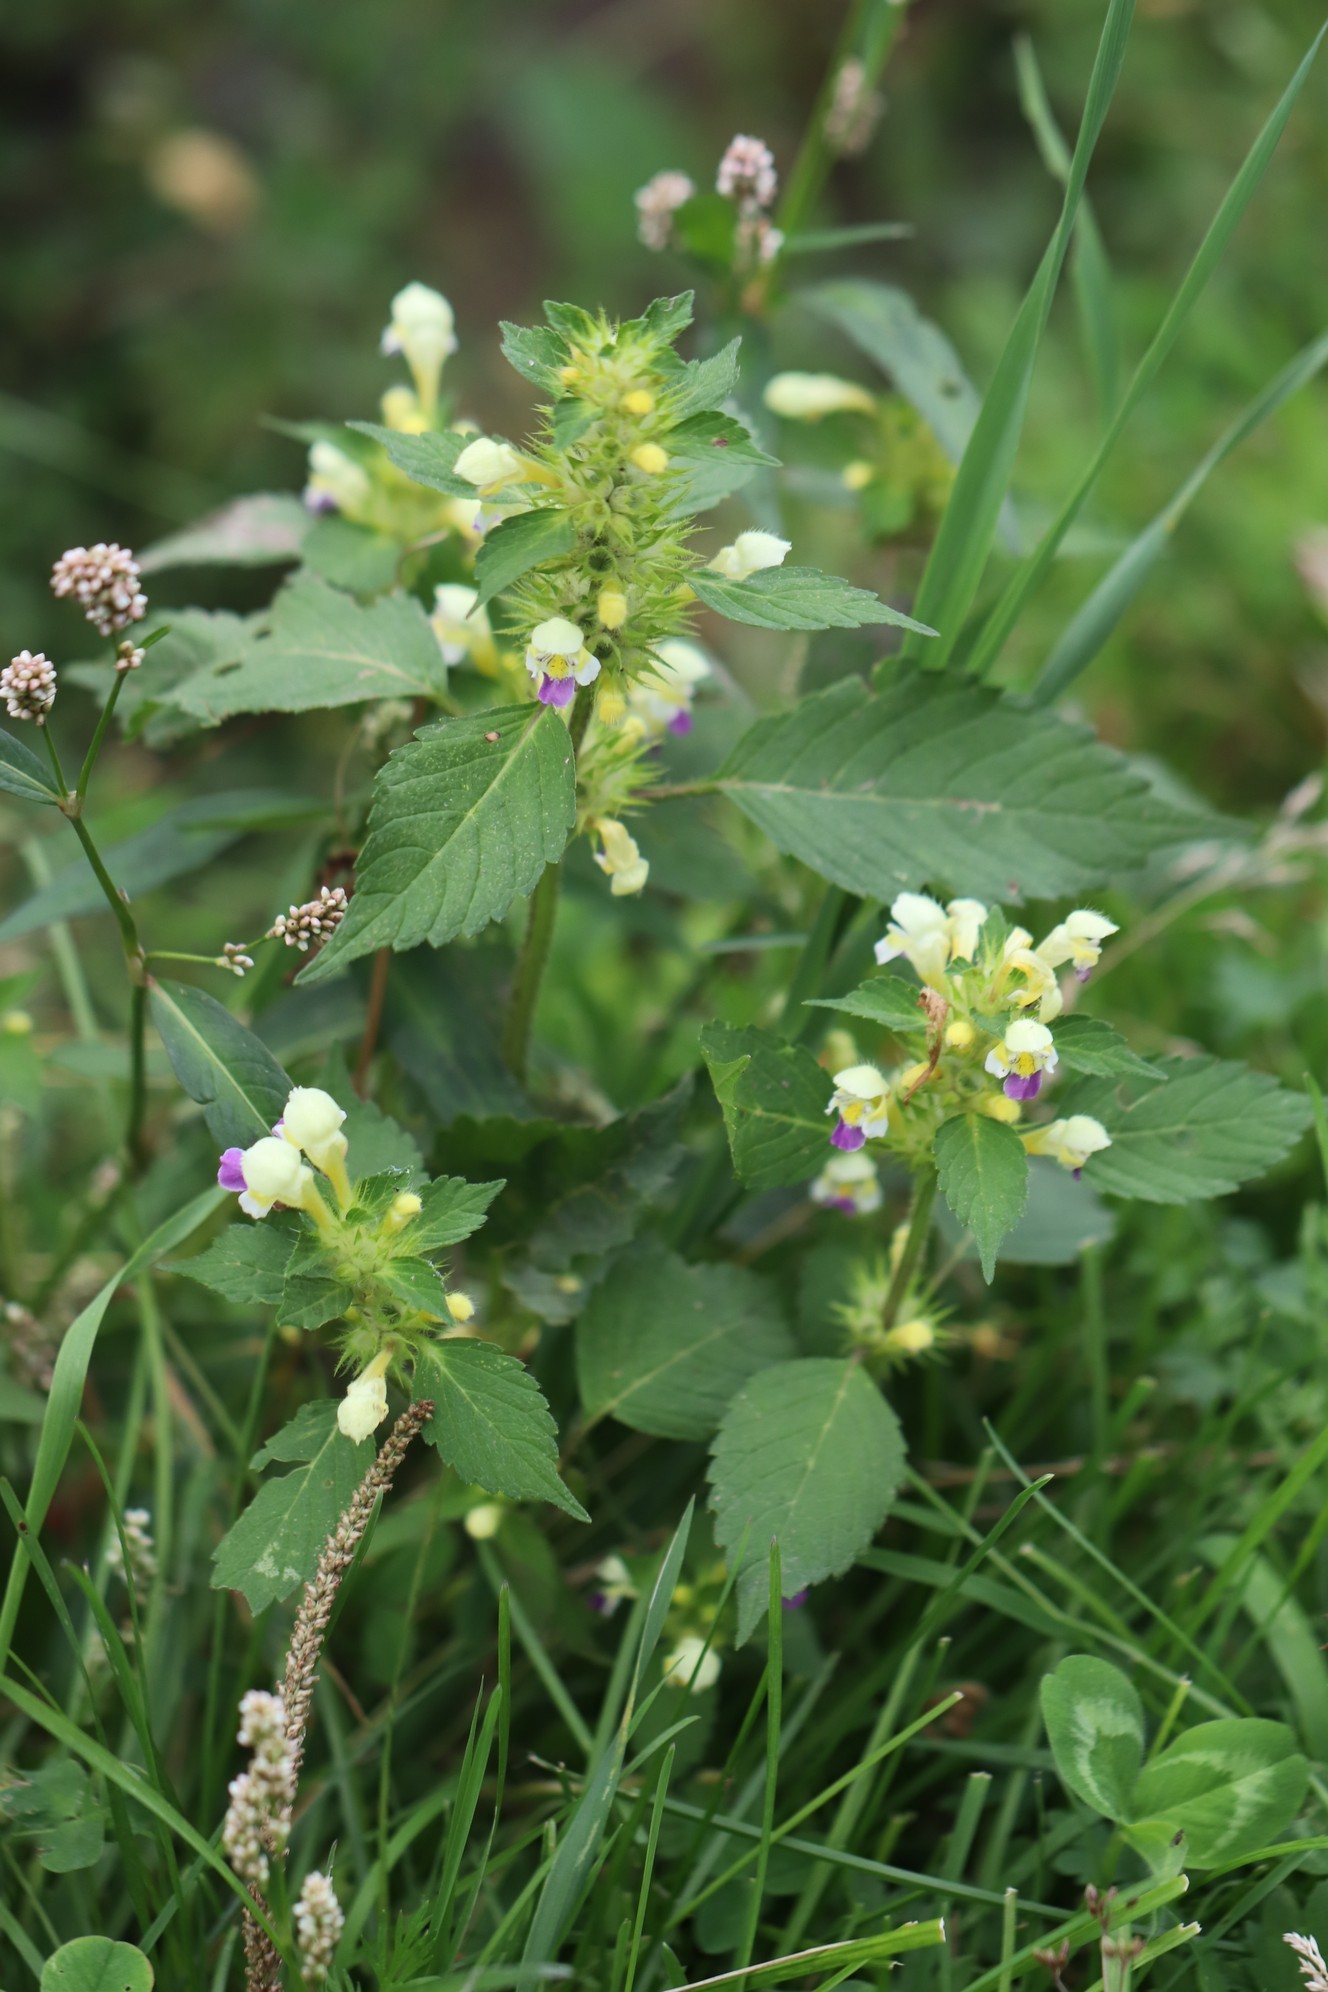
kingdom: Plantae
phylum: Tracheophyta
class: Magnoliopsida
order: Lamiales
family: Lamiaceae
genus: Galeopsis
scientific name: Galeopsis speciosa
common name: Large-flowered hemp-nettle
